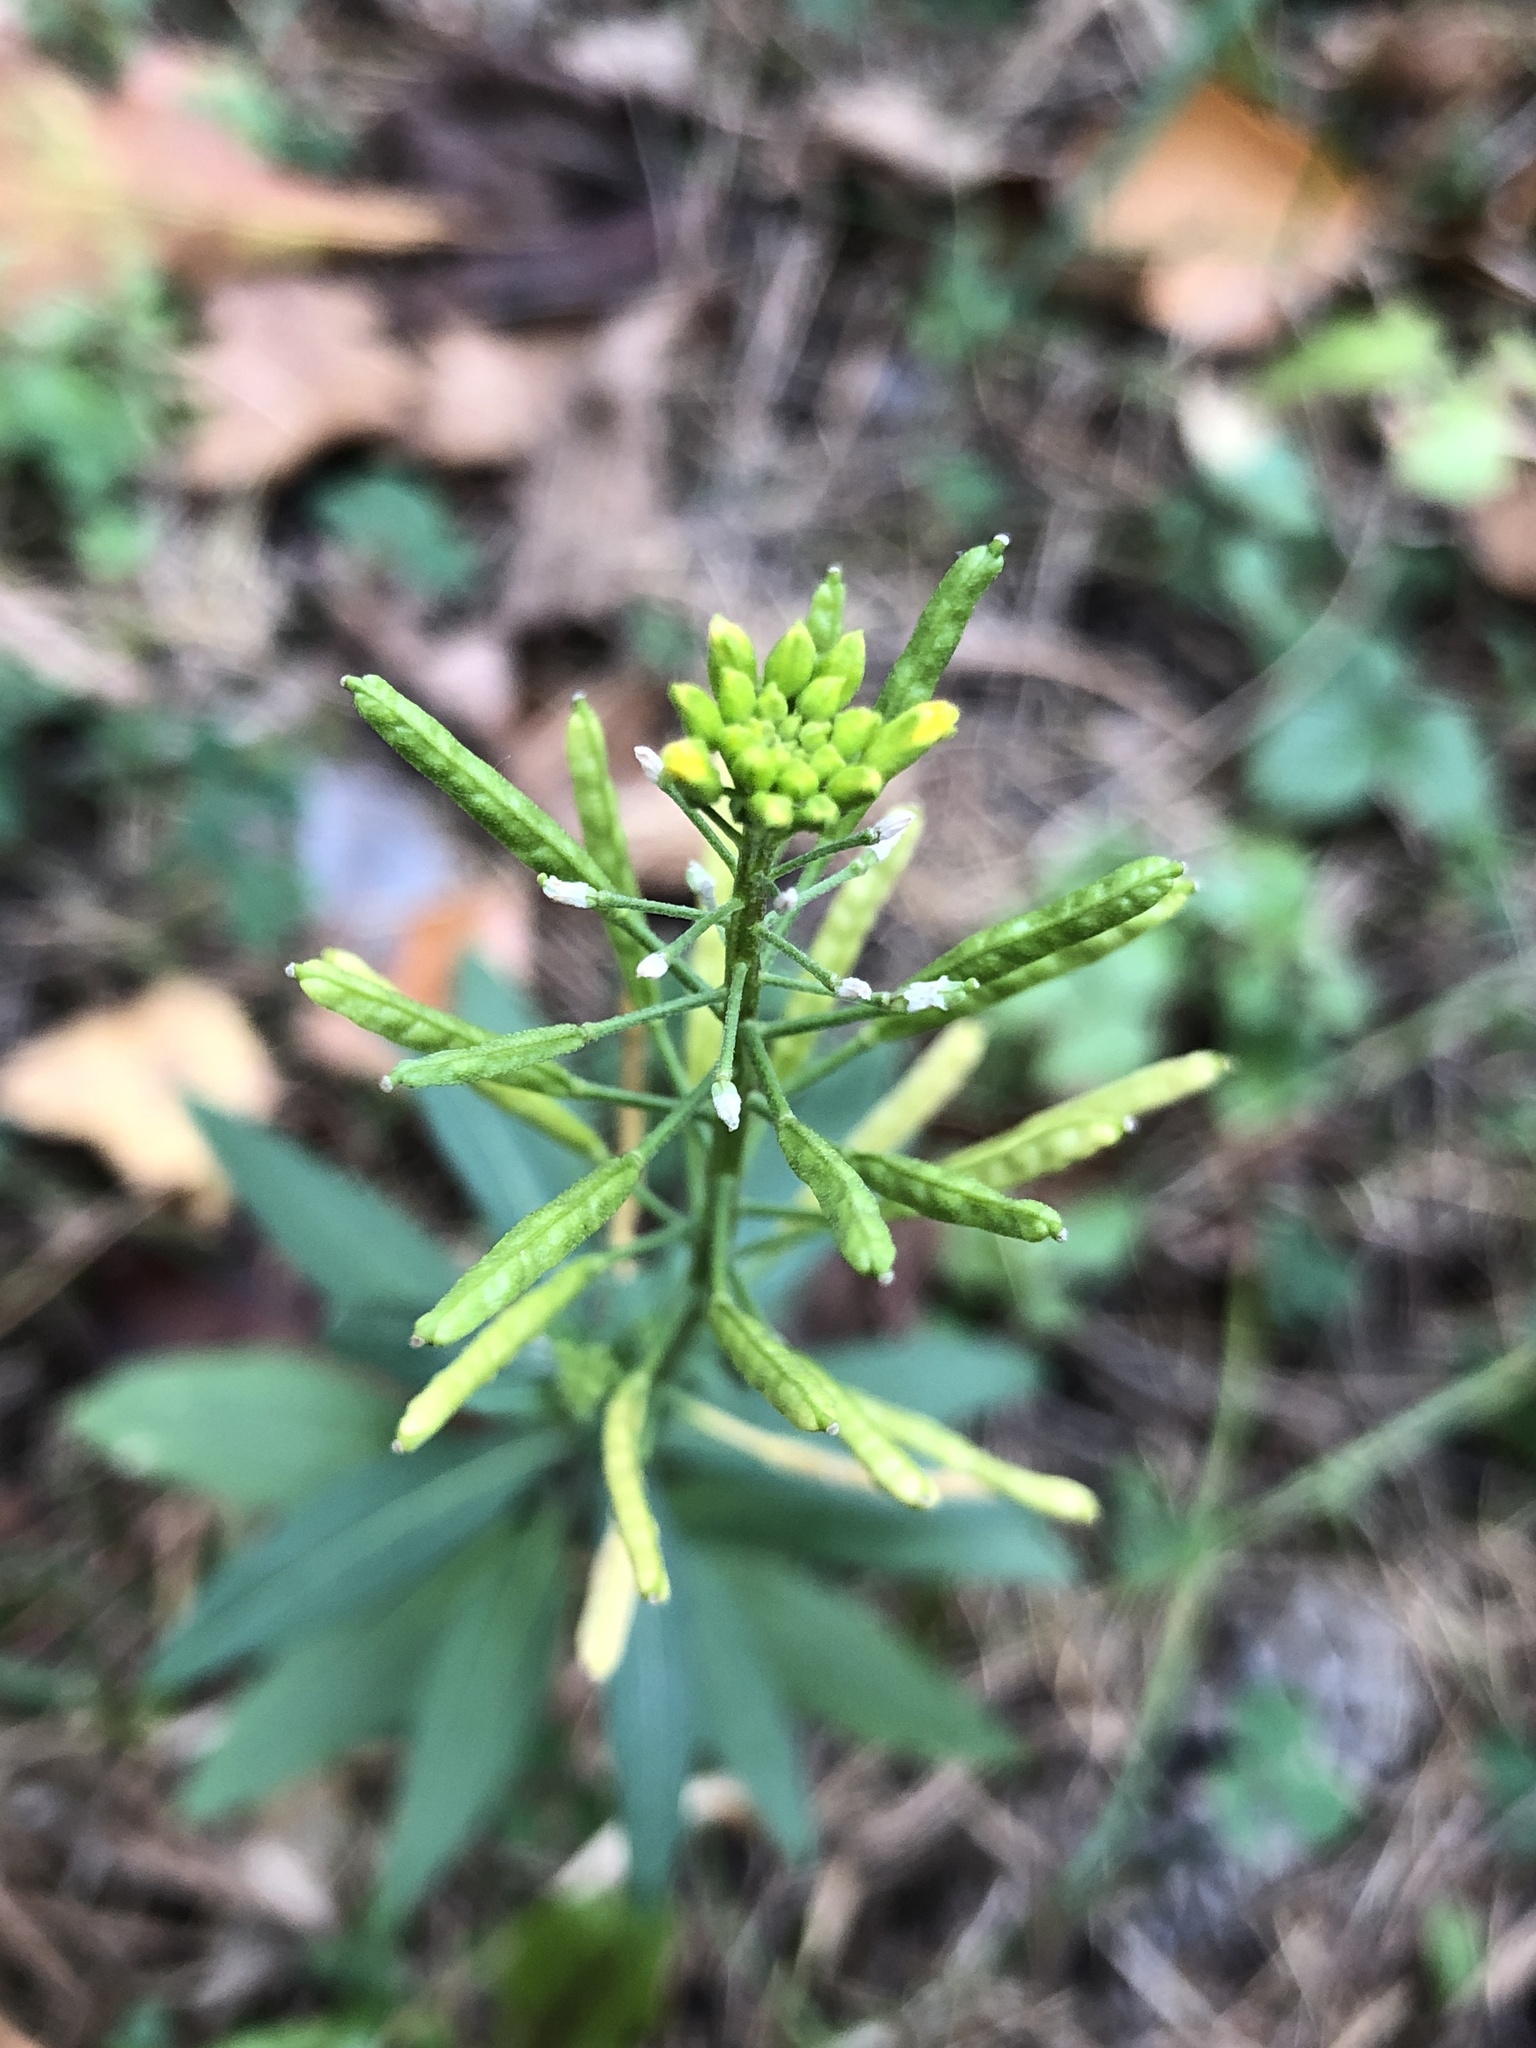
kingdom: Plantae
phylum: Tracheophyta
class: Magnoliopsida
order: Brassicales
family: Brassicaceae
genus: Erysimum
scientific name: Erysimum cheiranthoides
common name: Treacle mustard
